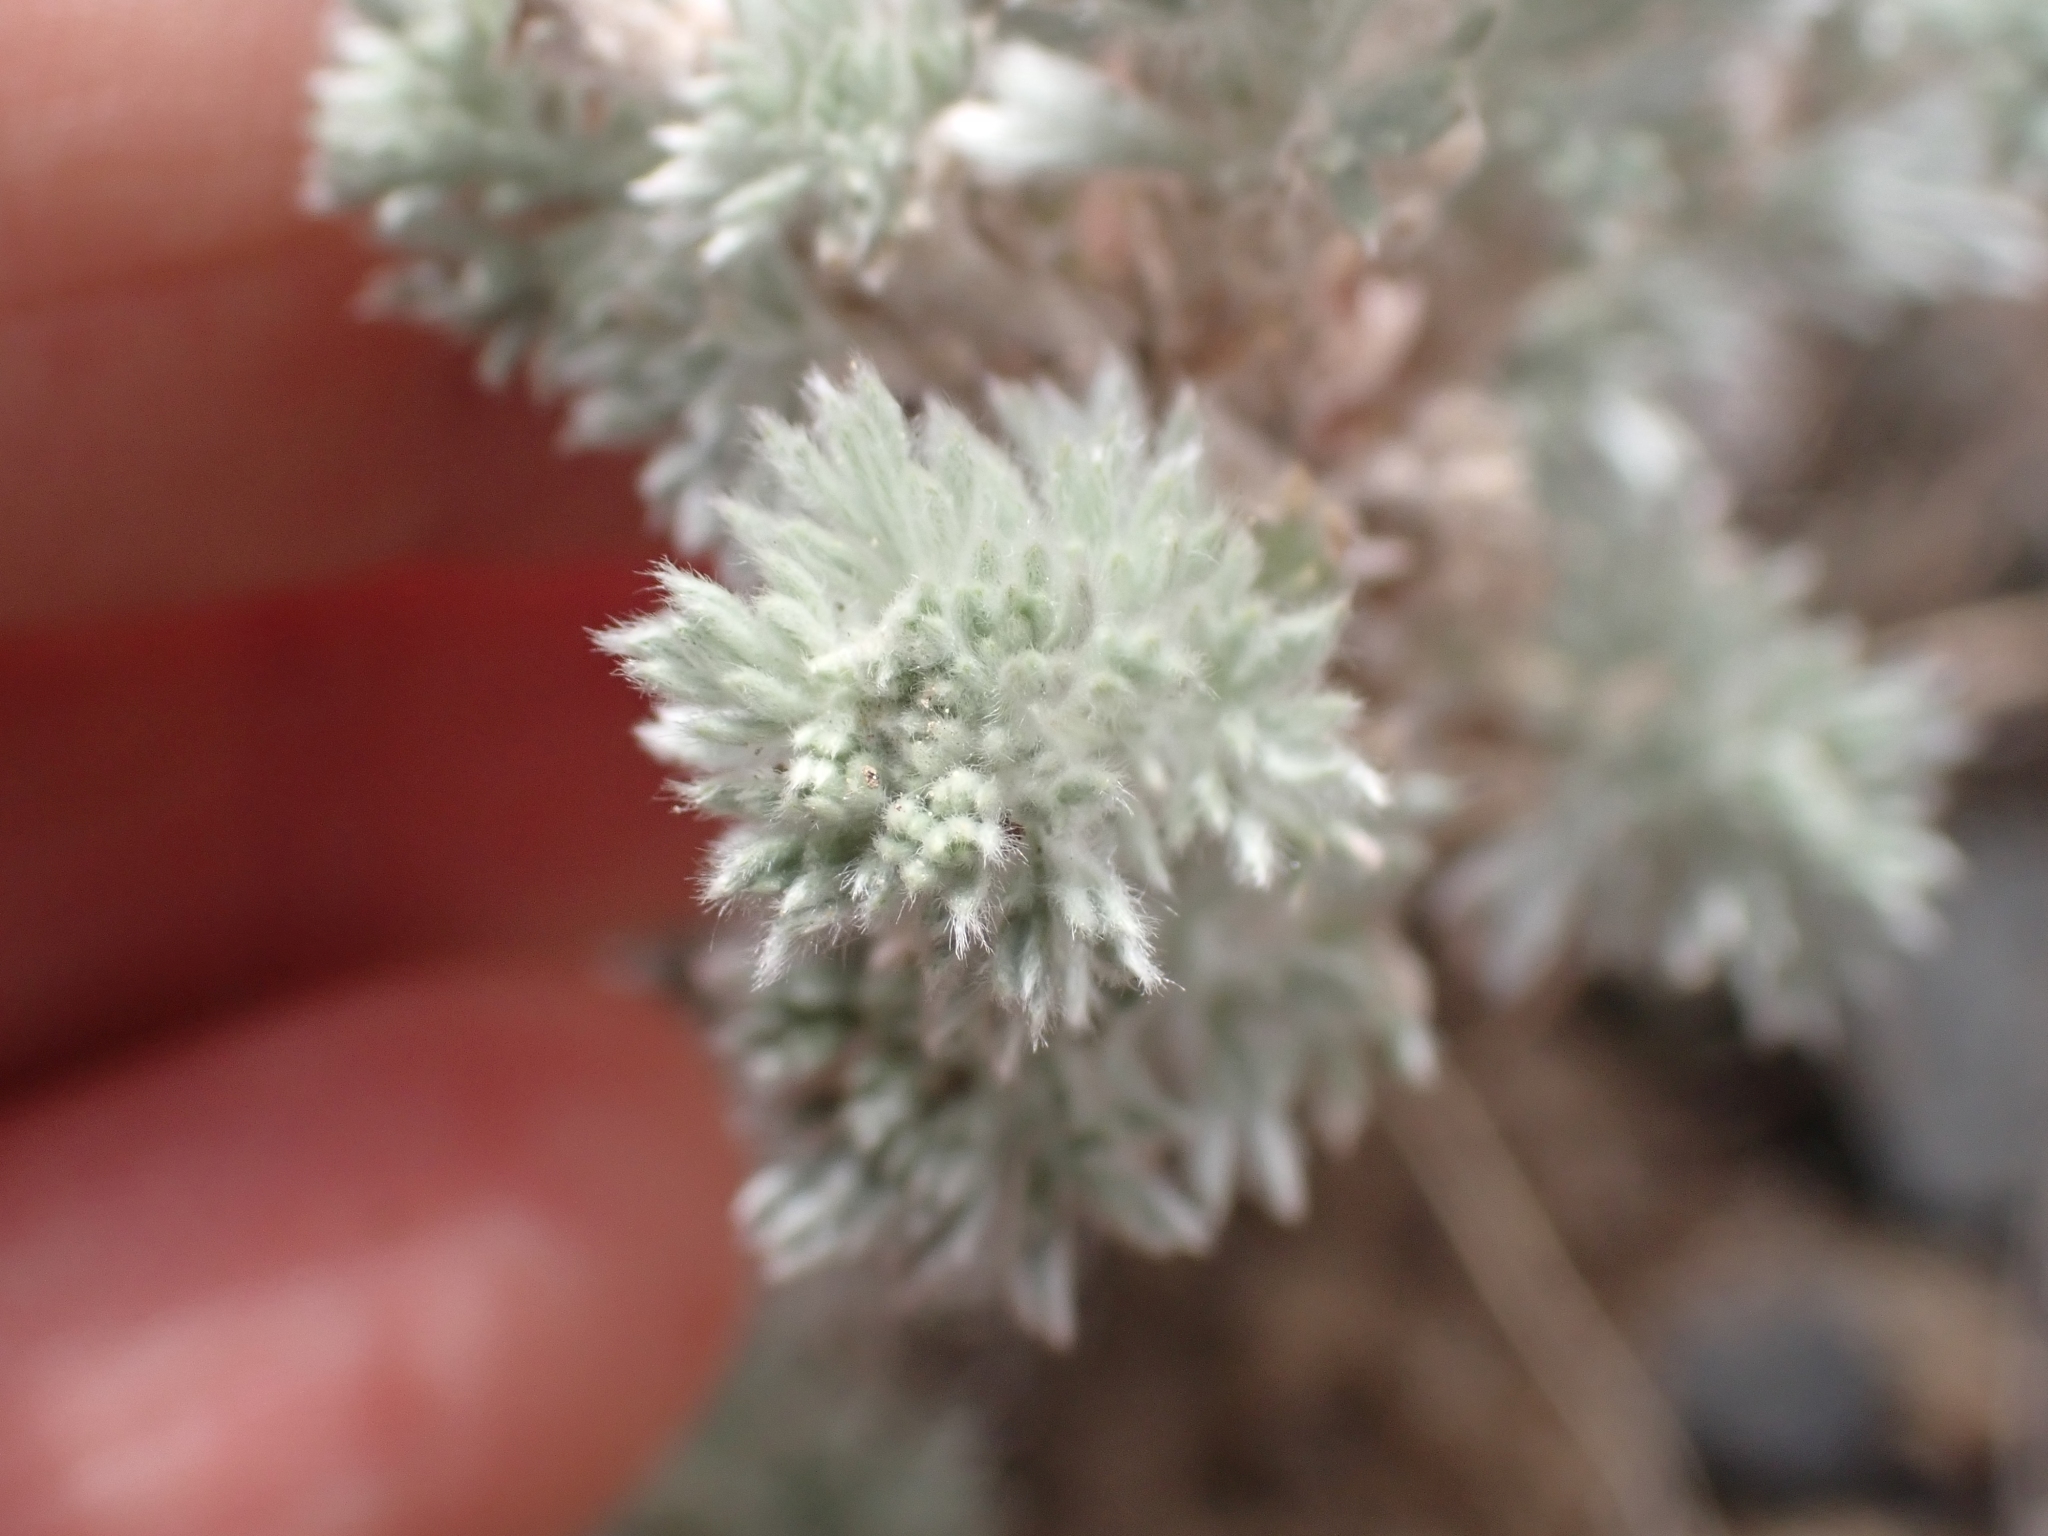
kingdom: Plantae
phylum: Tracheophyta
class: Magnoliopsida
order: Asterales
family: Asteraceae
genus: Artemisia
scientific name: Artemisia frigida
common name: Prairie sagewort
